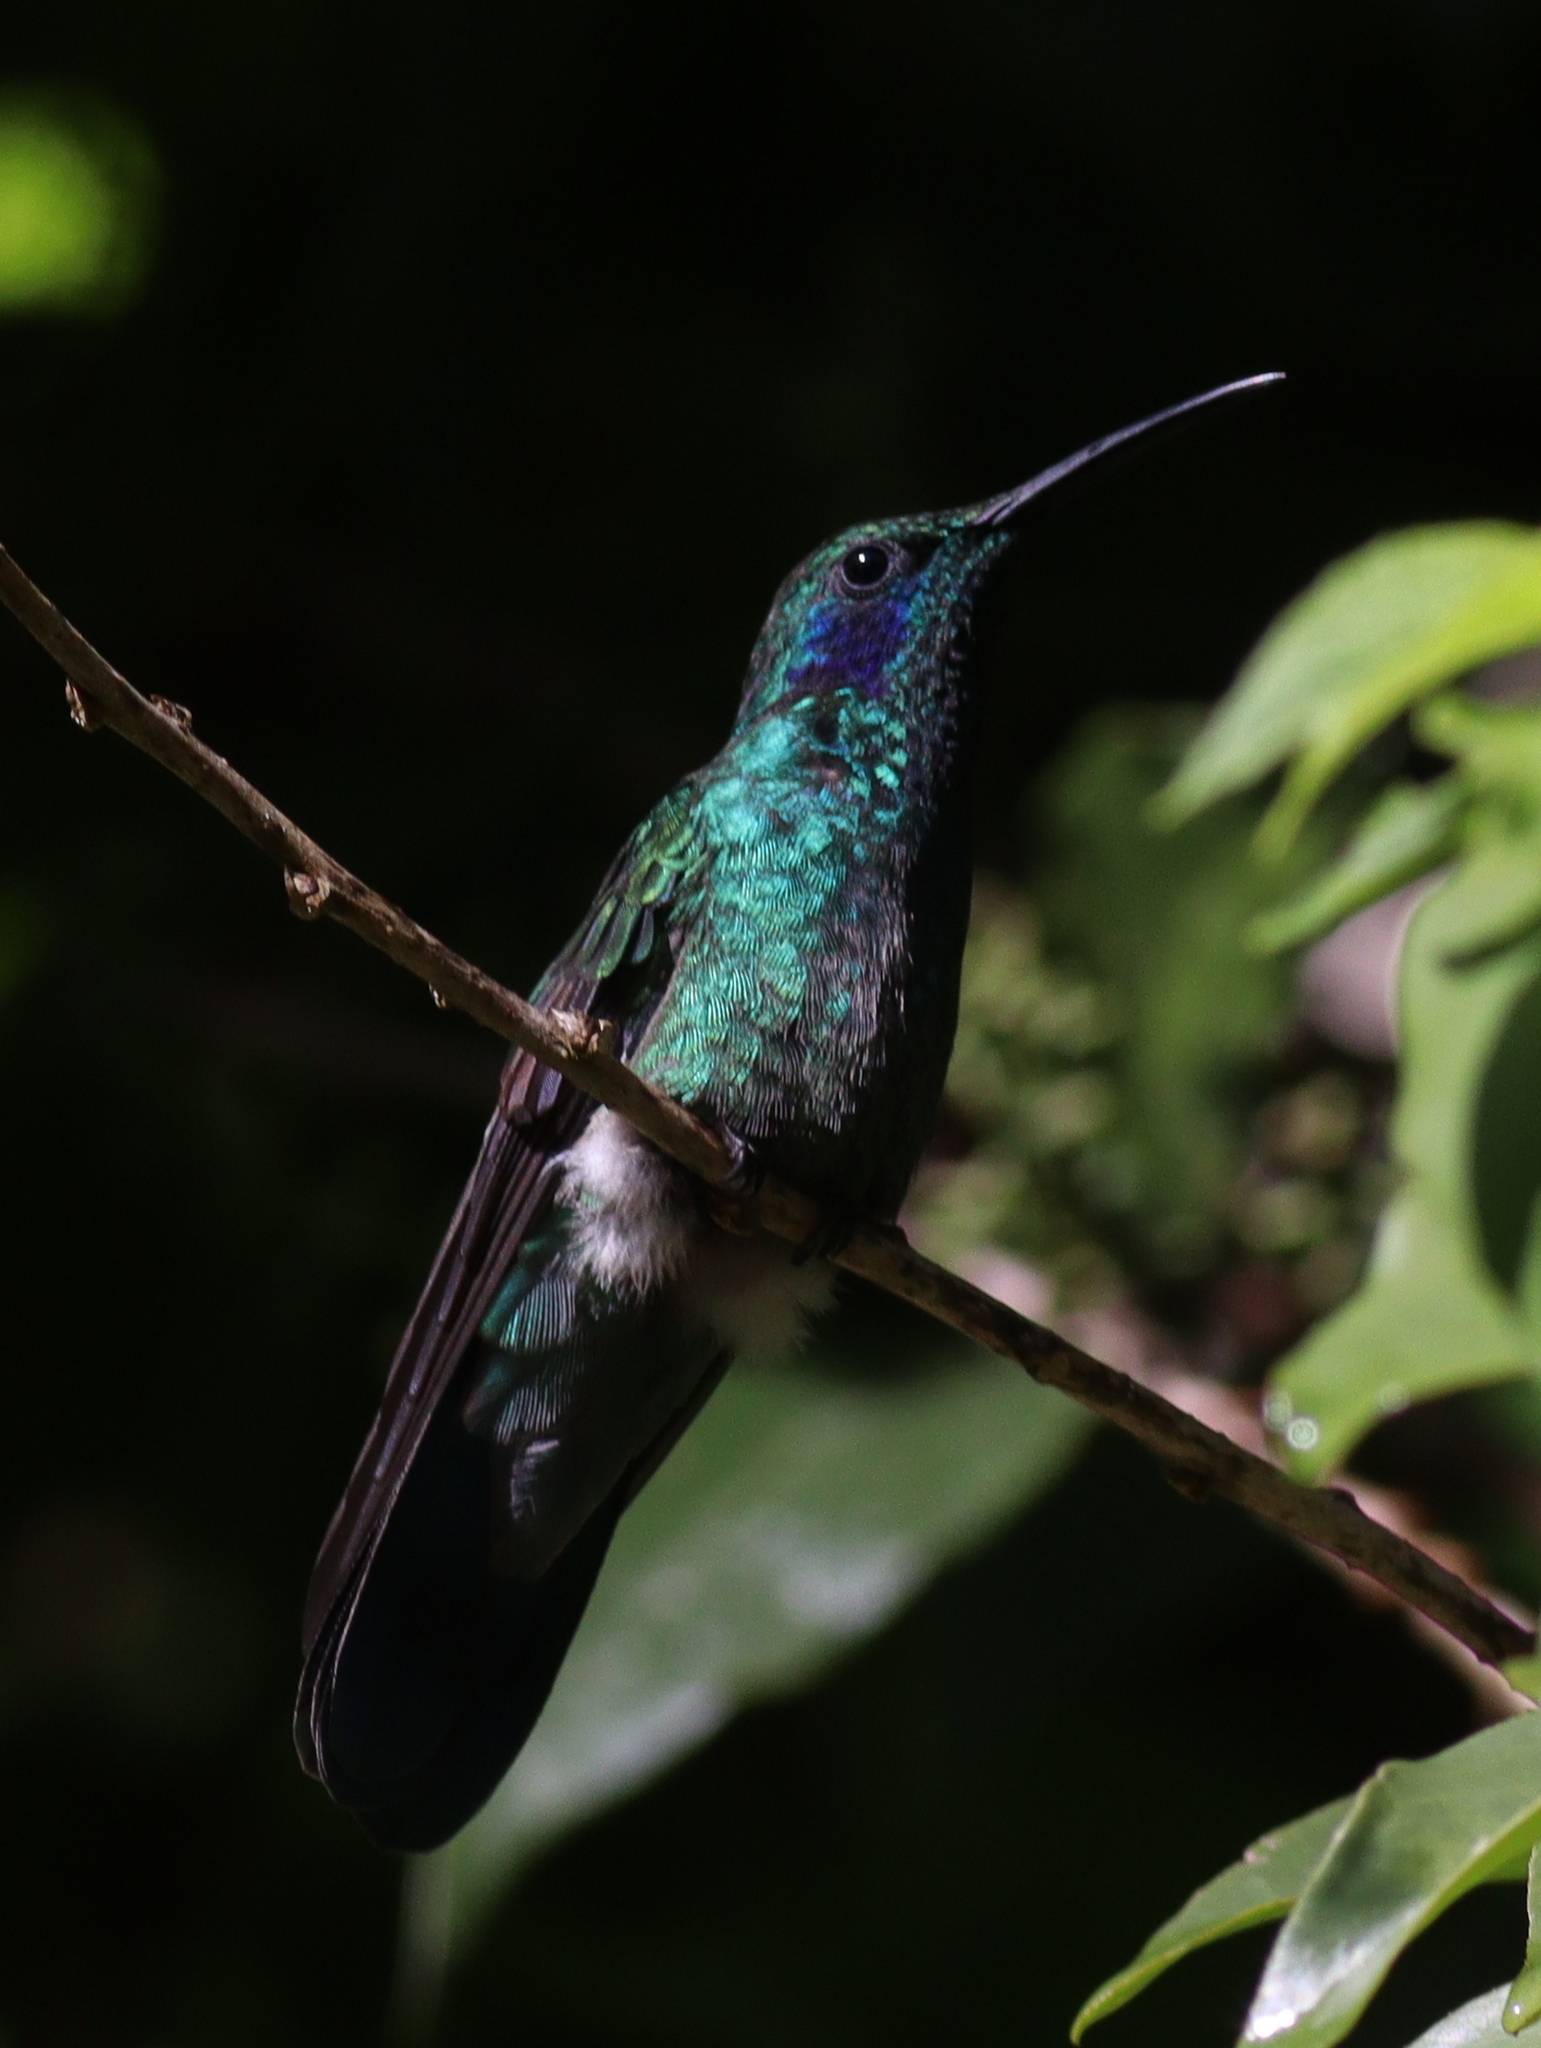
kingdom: Animalia
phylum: Chordata
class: Aves
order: Apodiformes
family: Trochilidae
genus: Colibri
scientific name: Colibri cyanotus
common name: Lesser violetear
